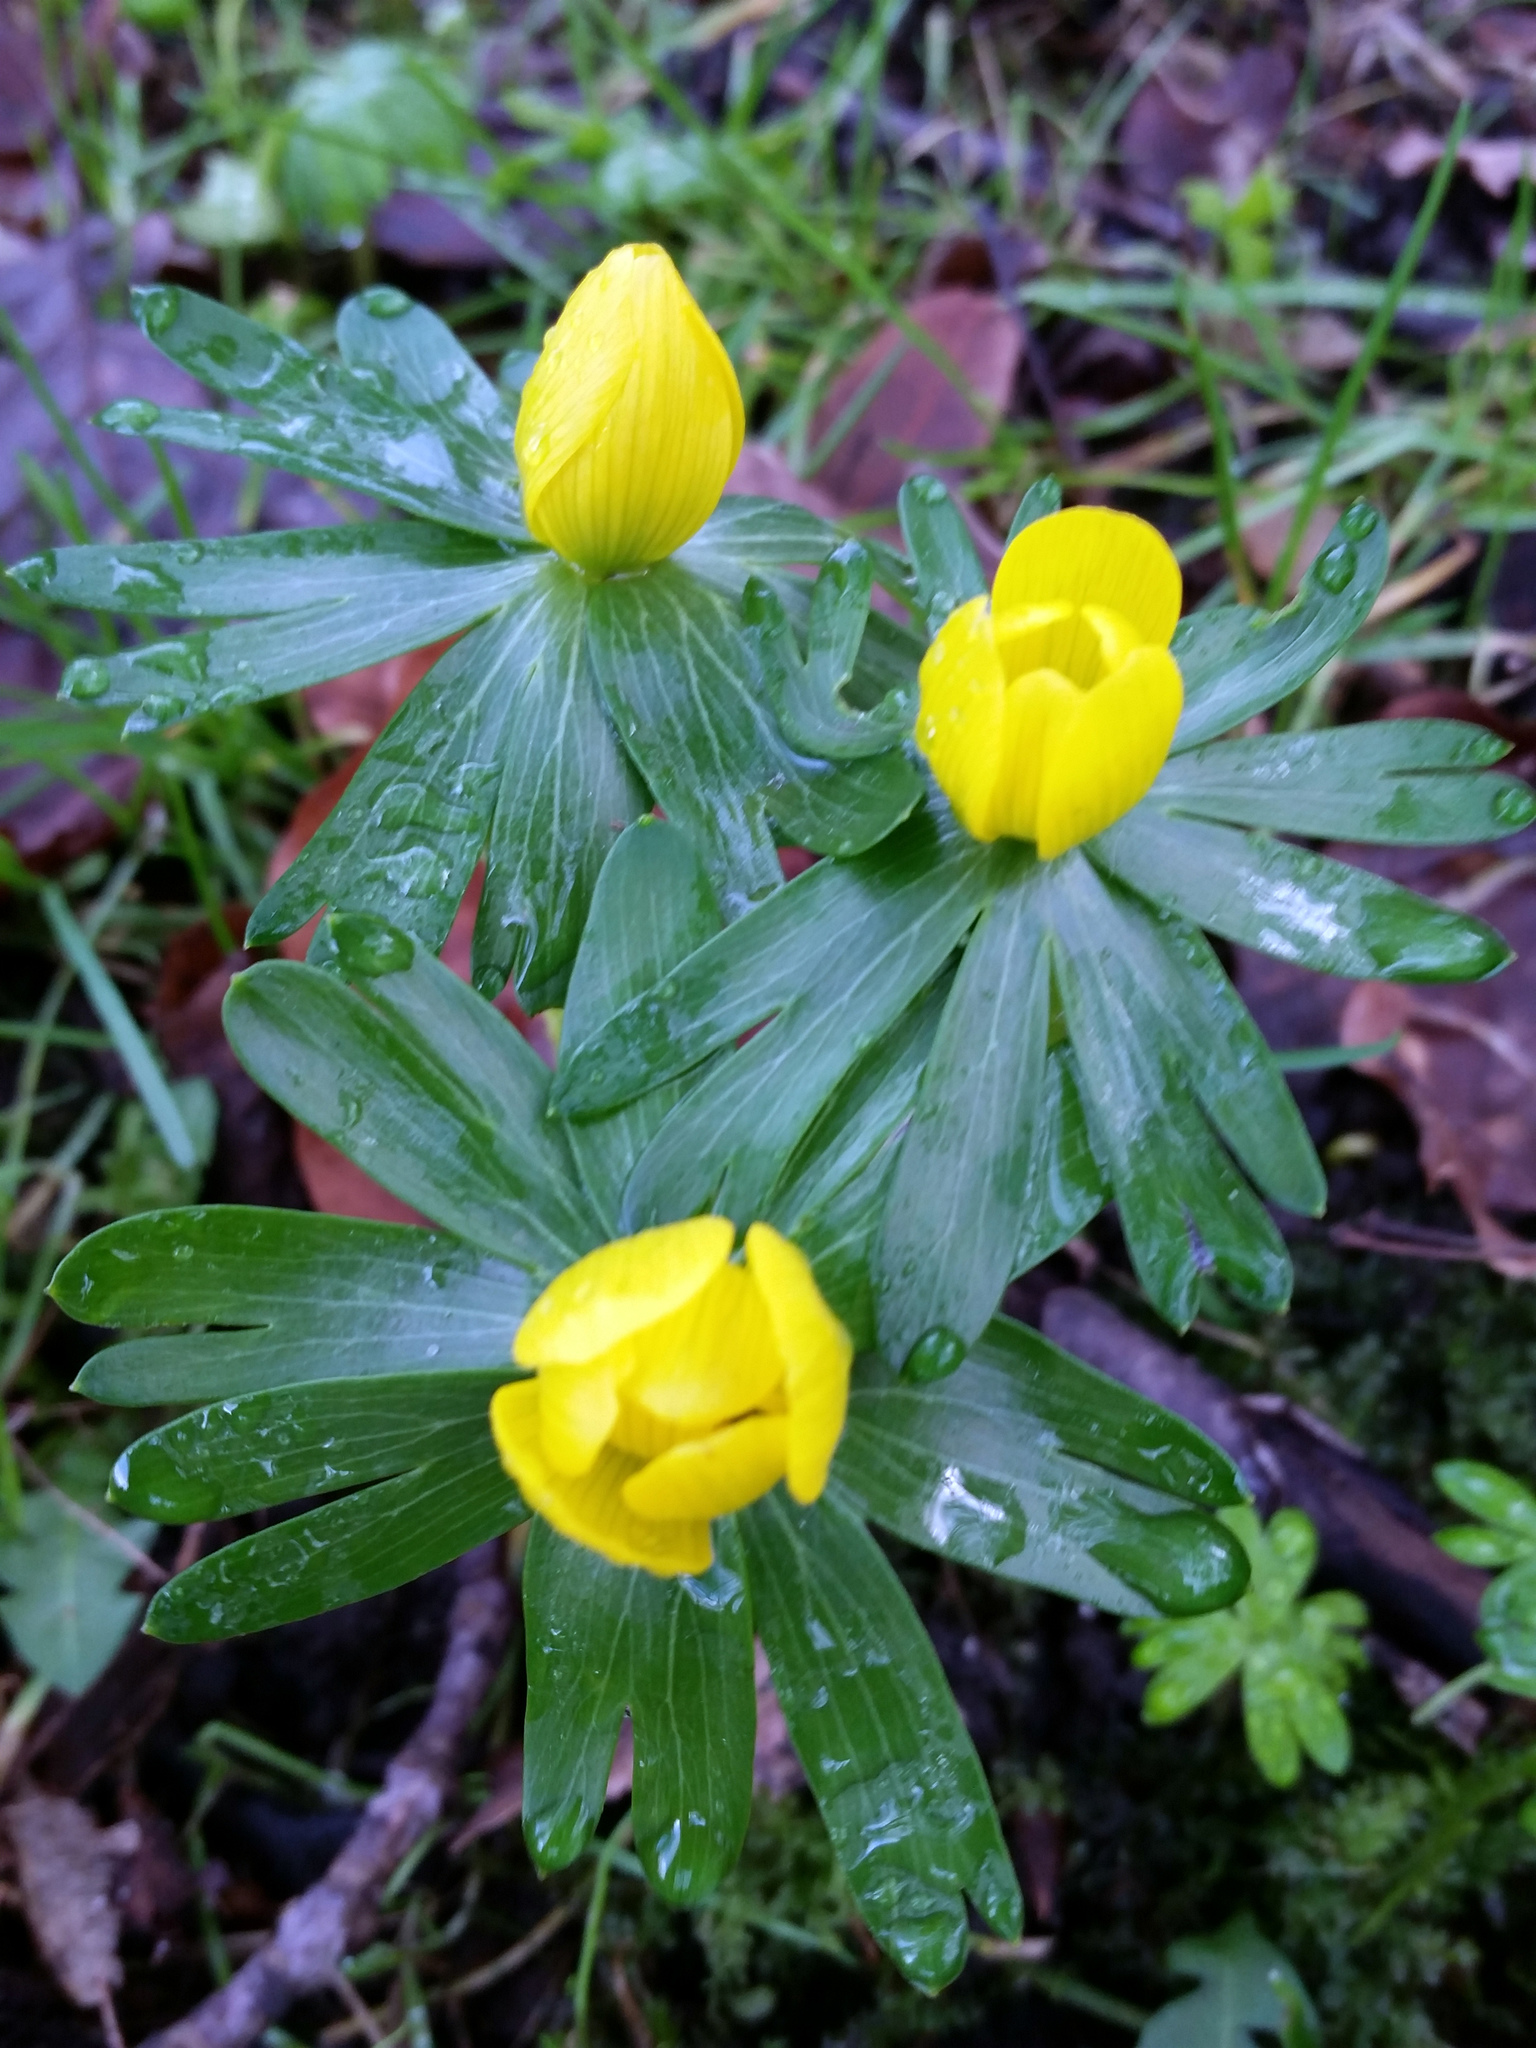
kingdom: Plantae
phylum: Tracheophyta
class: Magnoliopsida
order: Ranunculales
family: Ranunculaceae
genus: Eranthis
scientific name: Eranthis hyemalis
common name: Winter aconite
